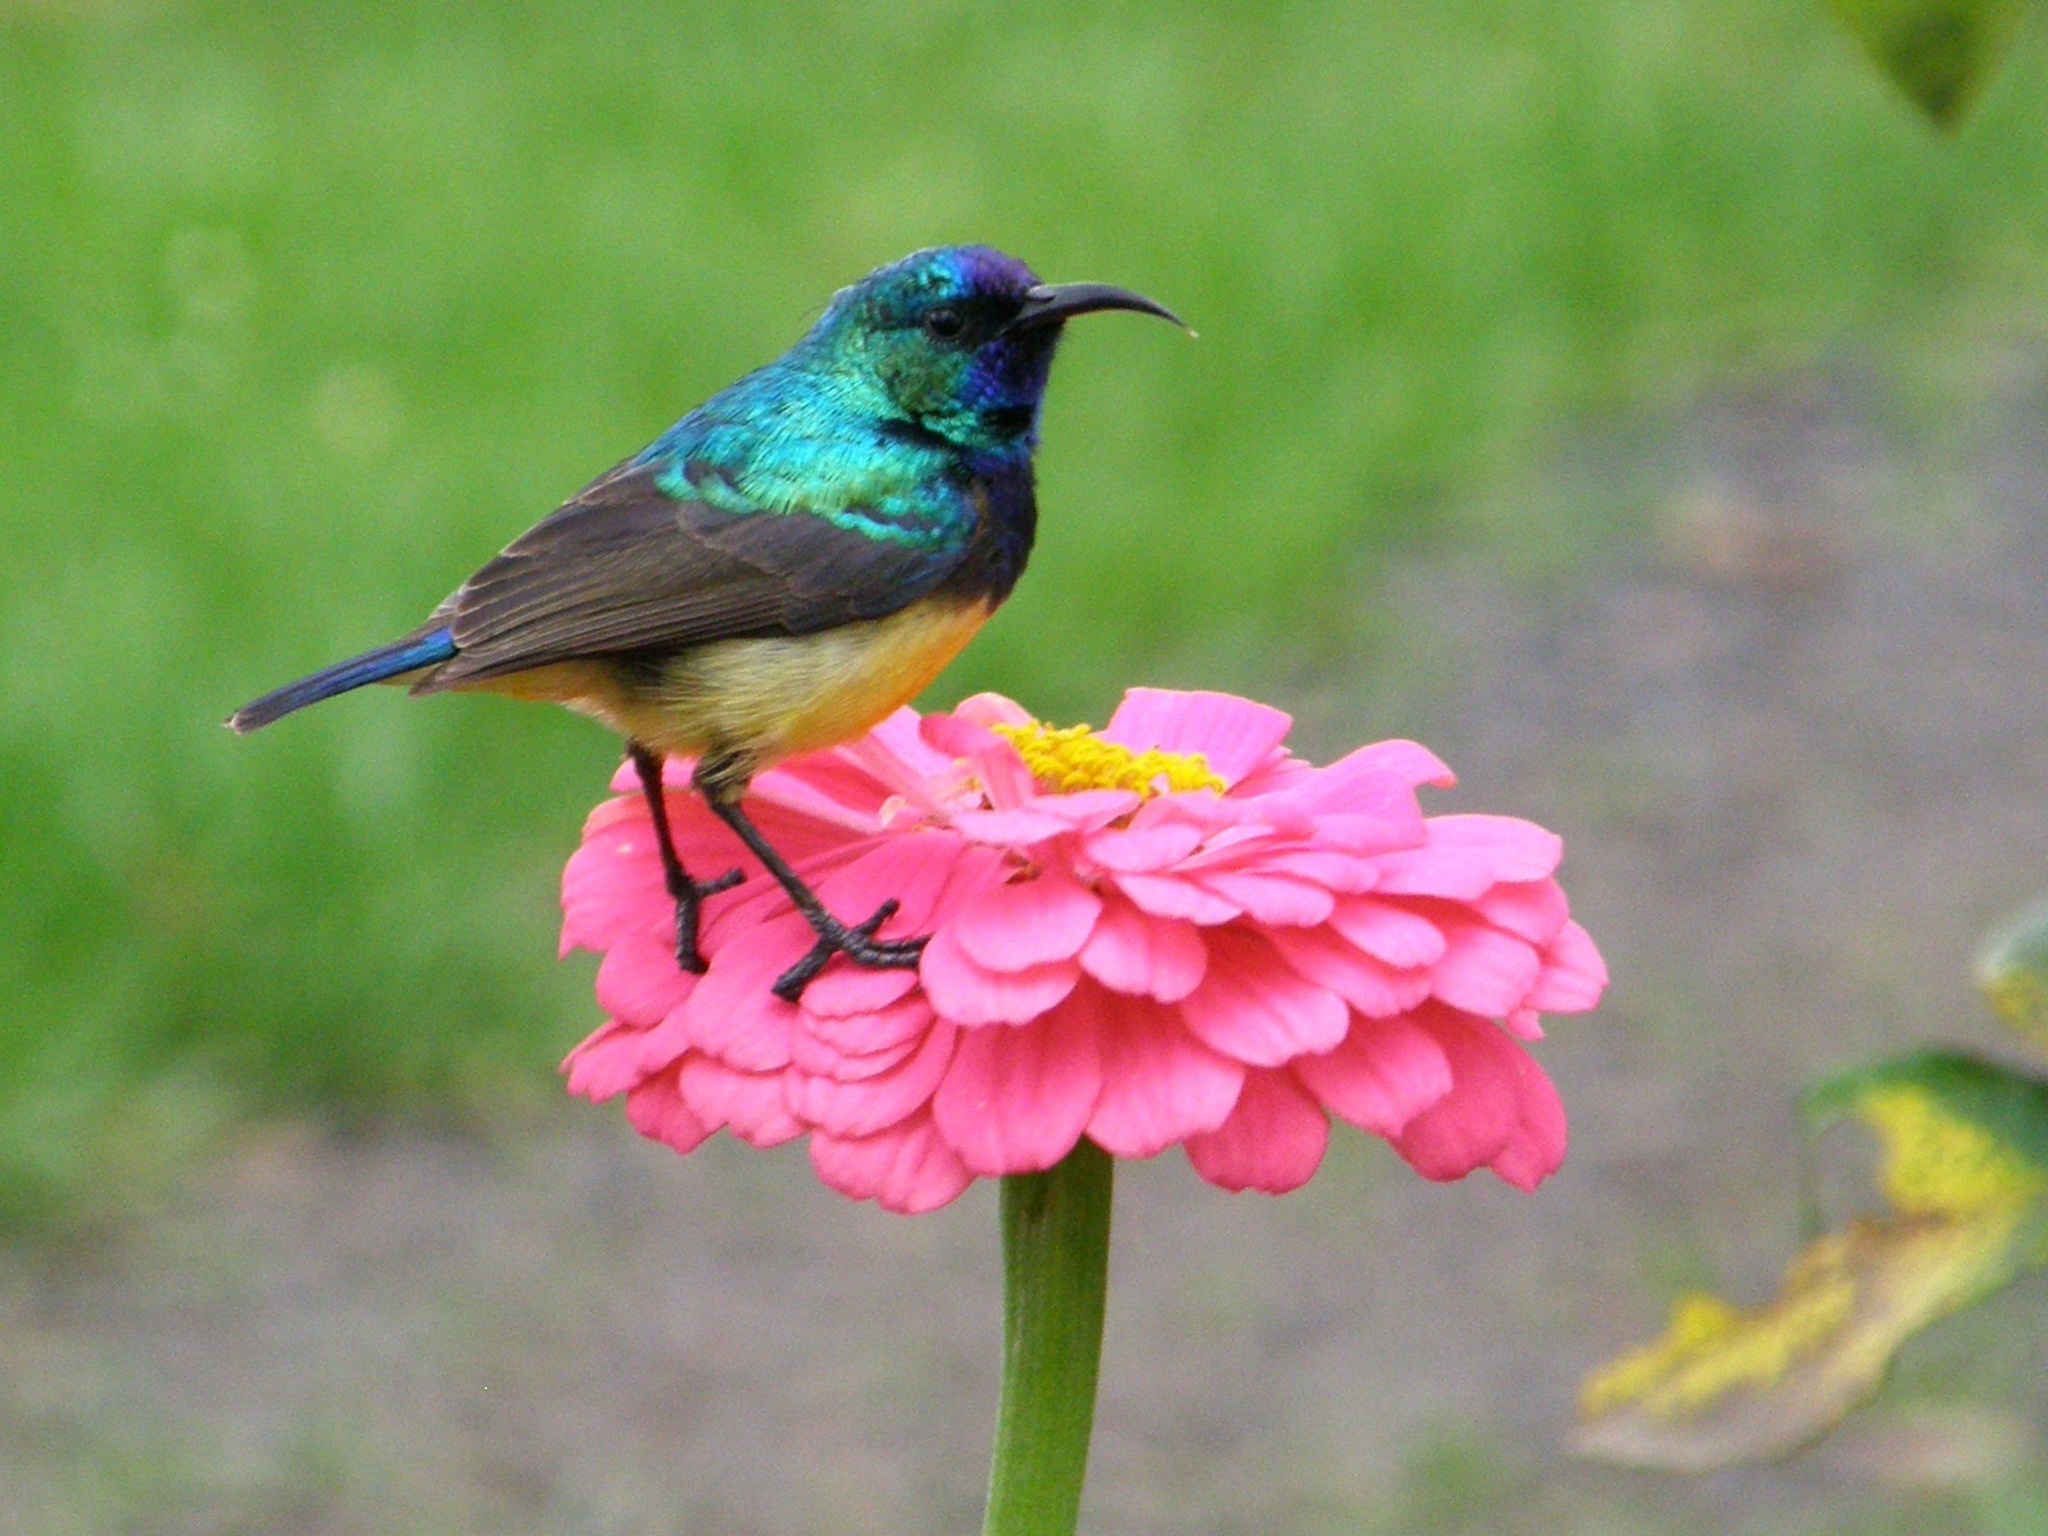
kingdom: Animalia
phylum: Chordata
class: Aves
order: Passeriformes
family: Nectariniidae
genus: Cinnyris
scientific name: Cinnyris venustus
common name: Variable sunbird
